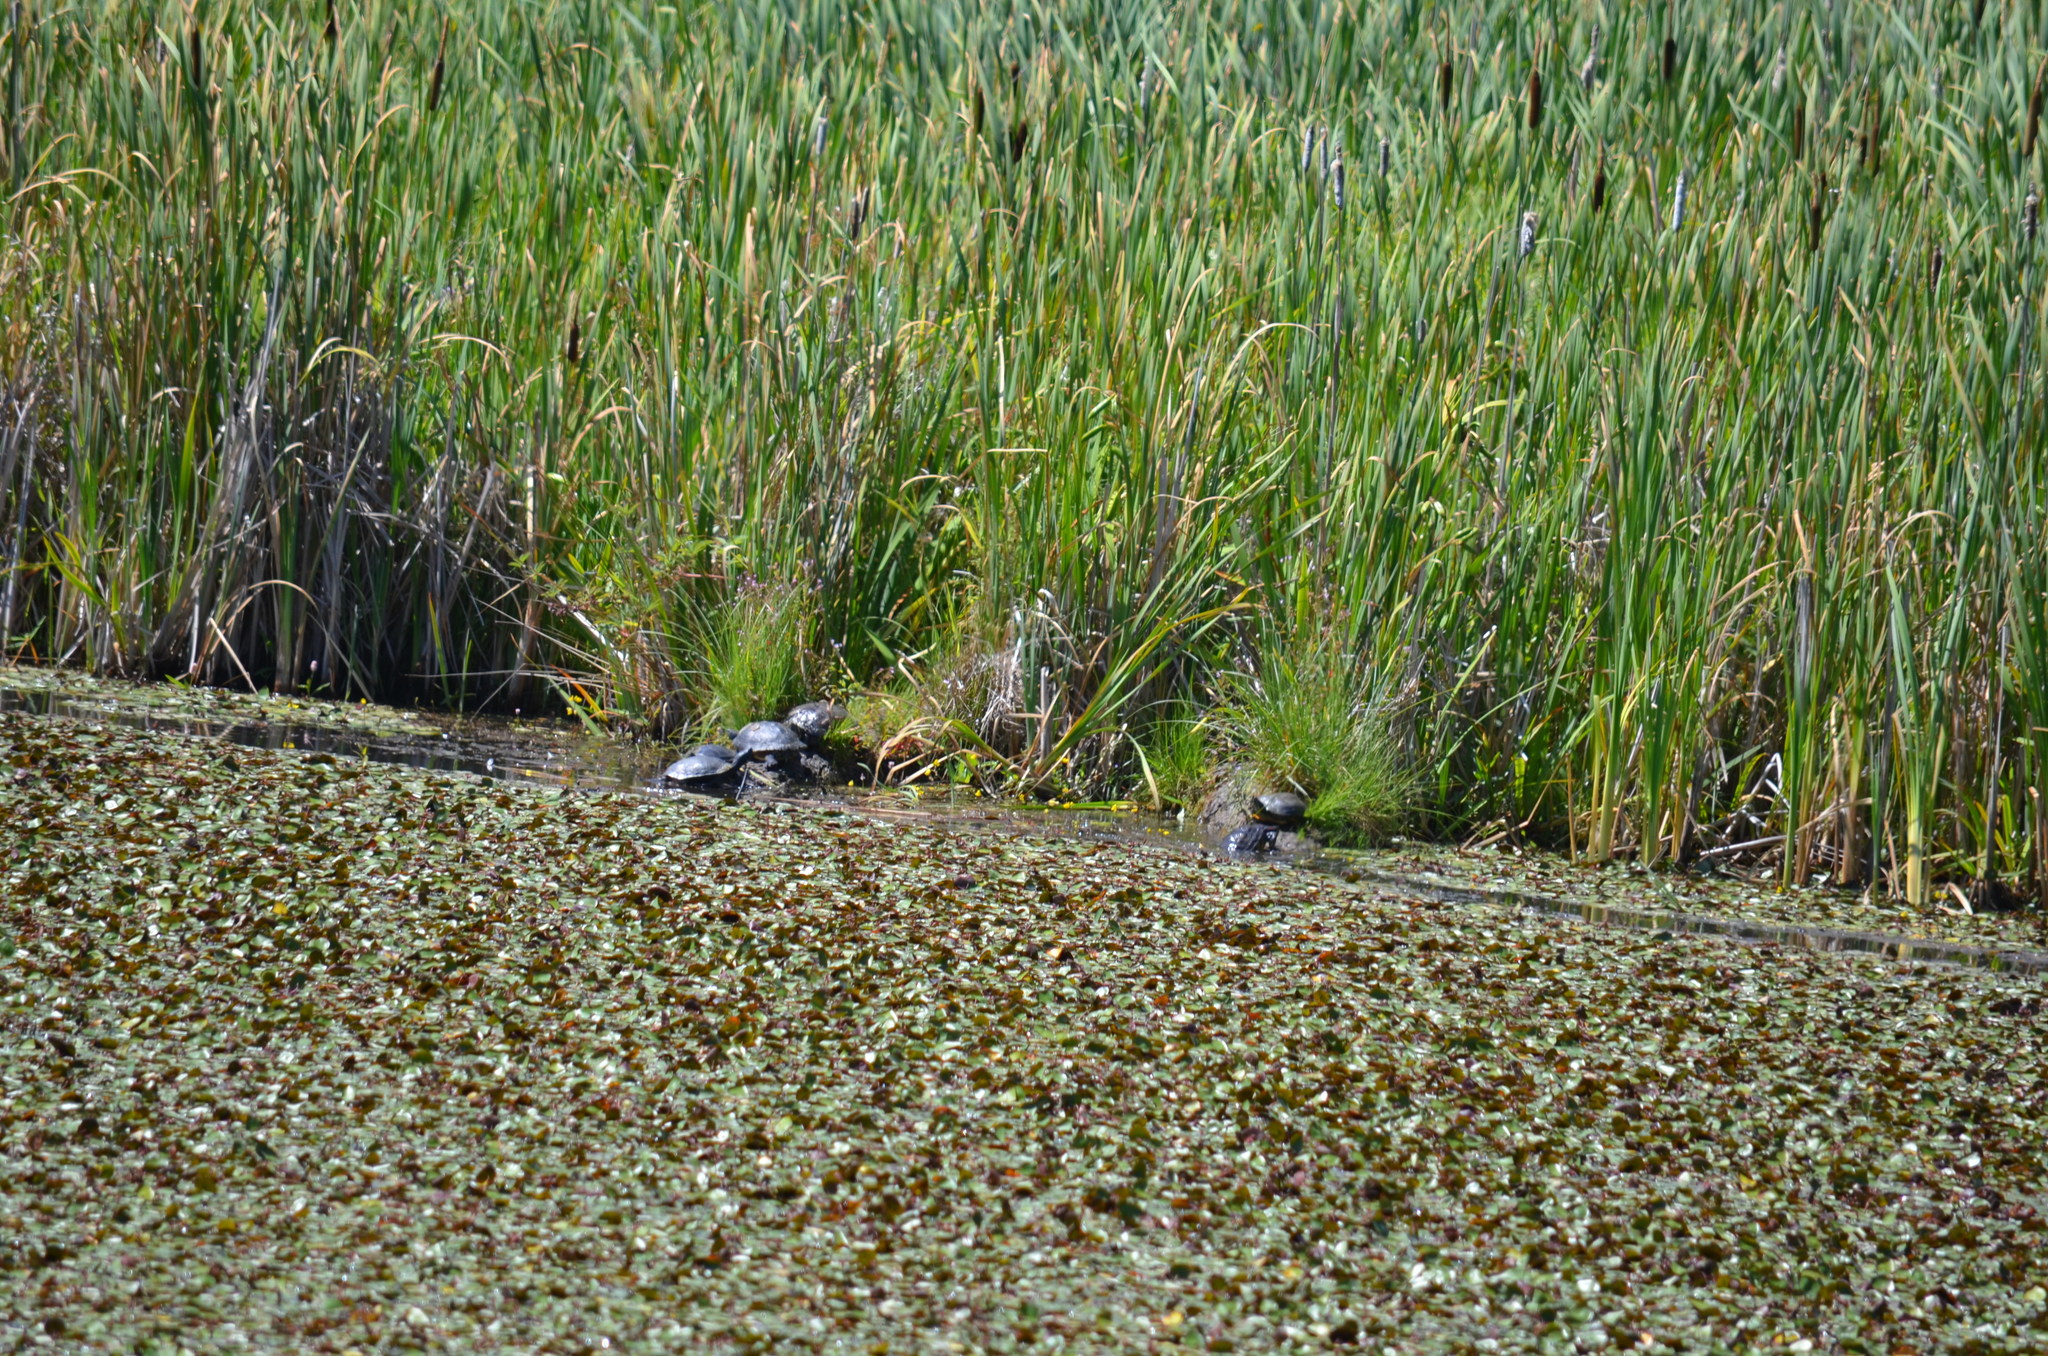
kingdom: Animalia
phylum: Chordata
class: Testudines
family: Emydidae
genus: Trachemys
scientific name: Trachemys scripta
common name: Slider
